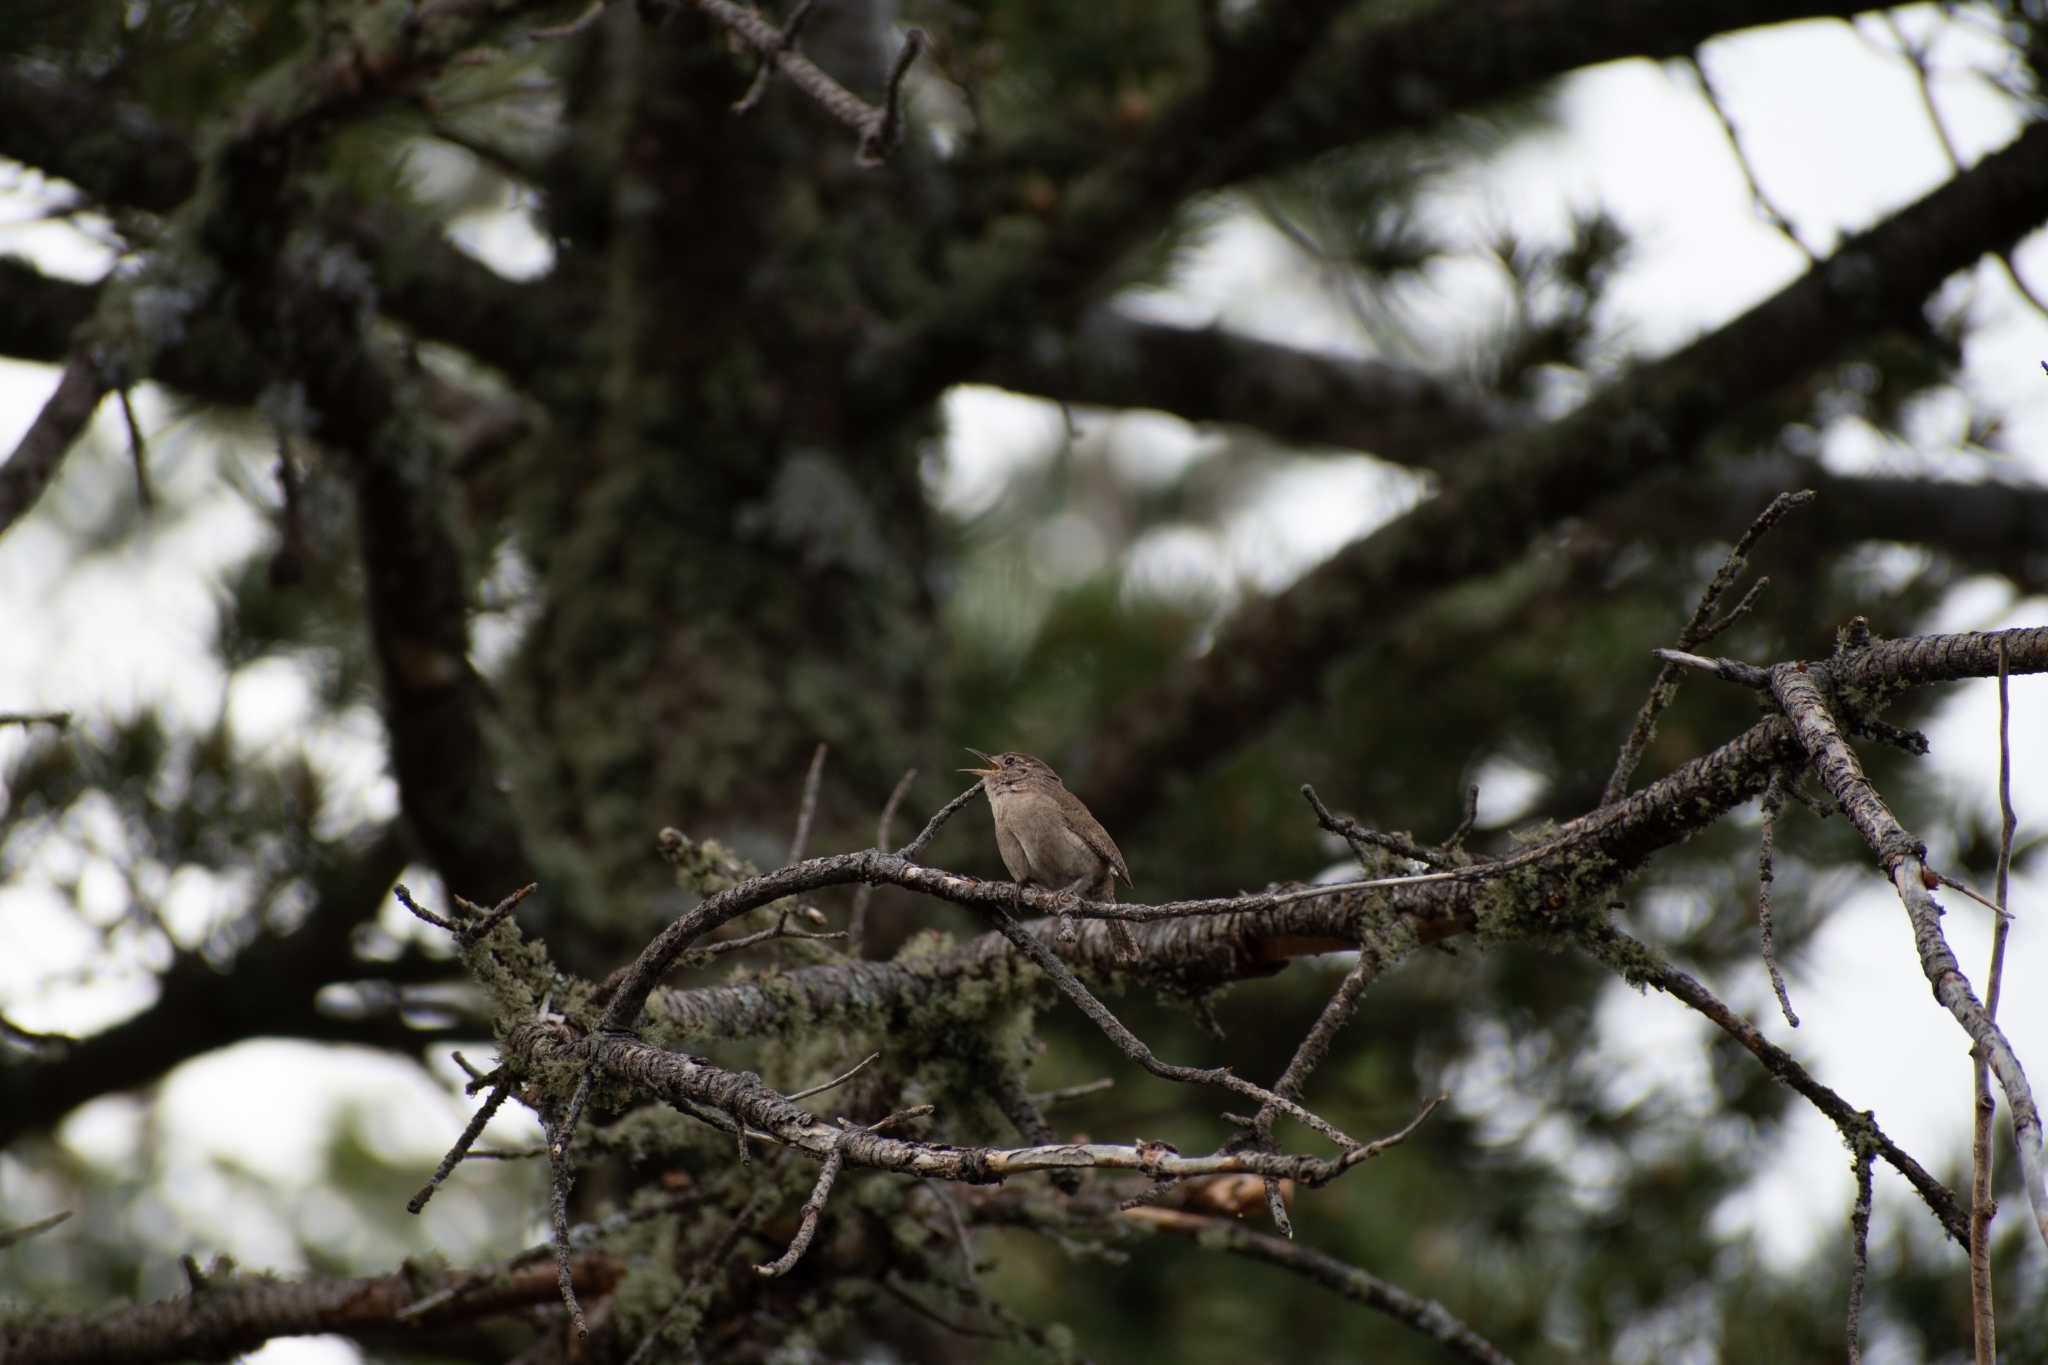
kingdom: Animalia
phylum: Chordata
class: Aves
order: Passeriformes
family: Troglodytidae
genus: Troglodytes
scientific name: Troglodytes aedon
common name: House wren
